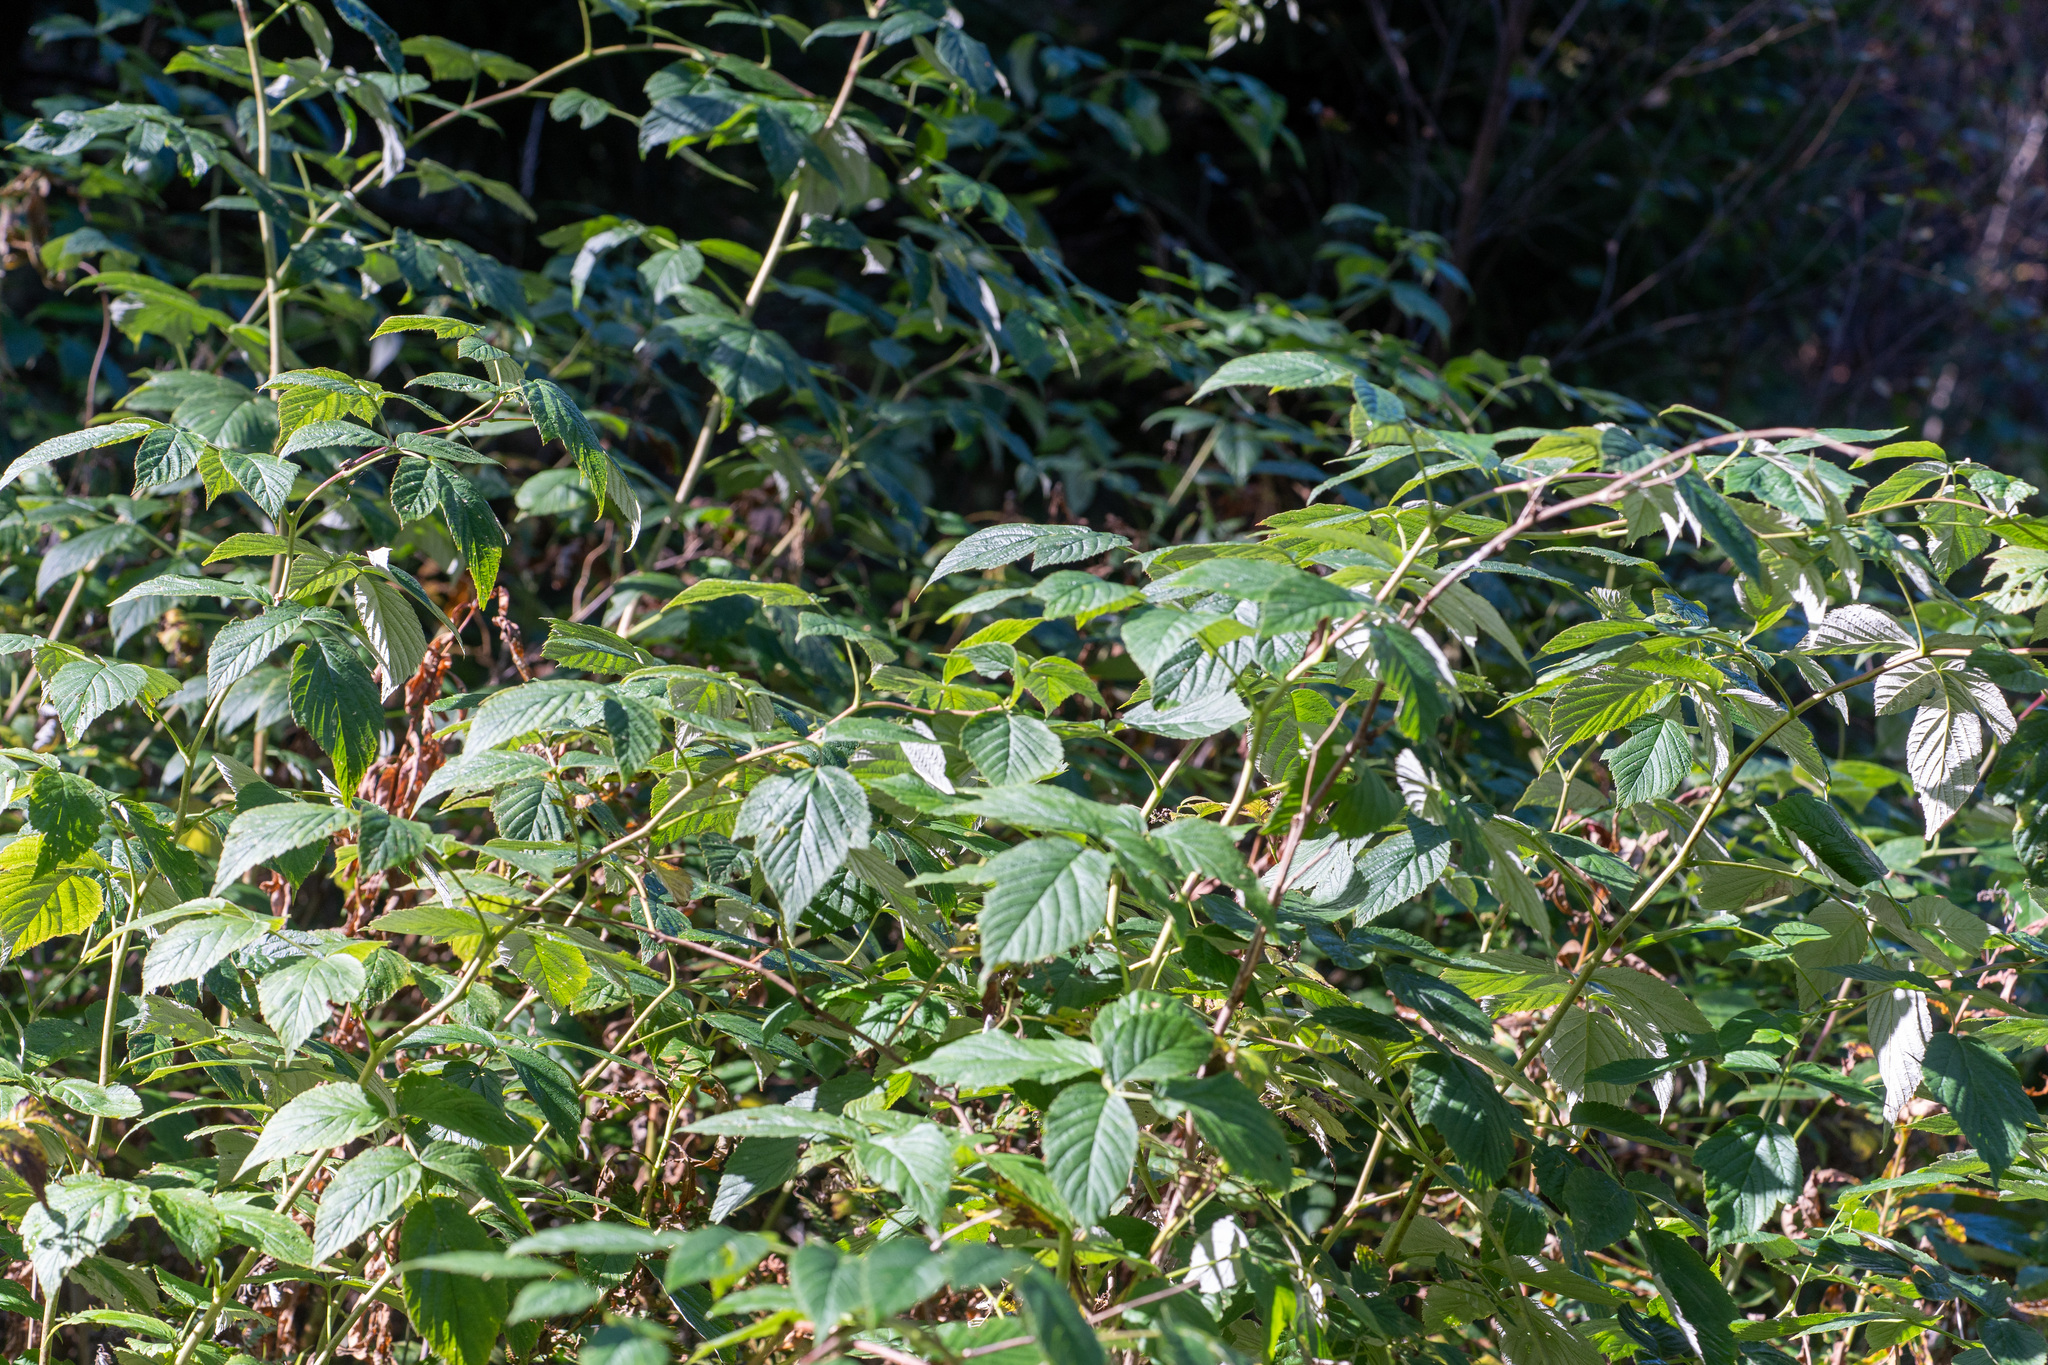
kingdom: Plantae
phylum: Tracheophyta
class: Magnoliopsida
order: Rosales
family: Rosaceae
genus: Rubus
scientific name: Rubus idaeus
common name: Raspberry
